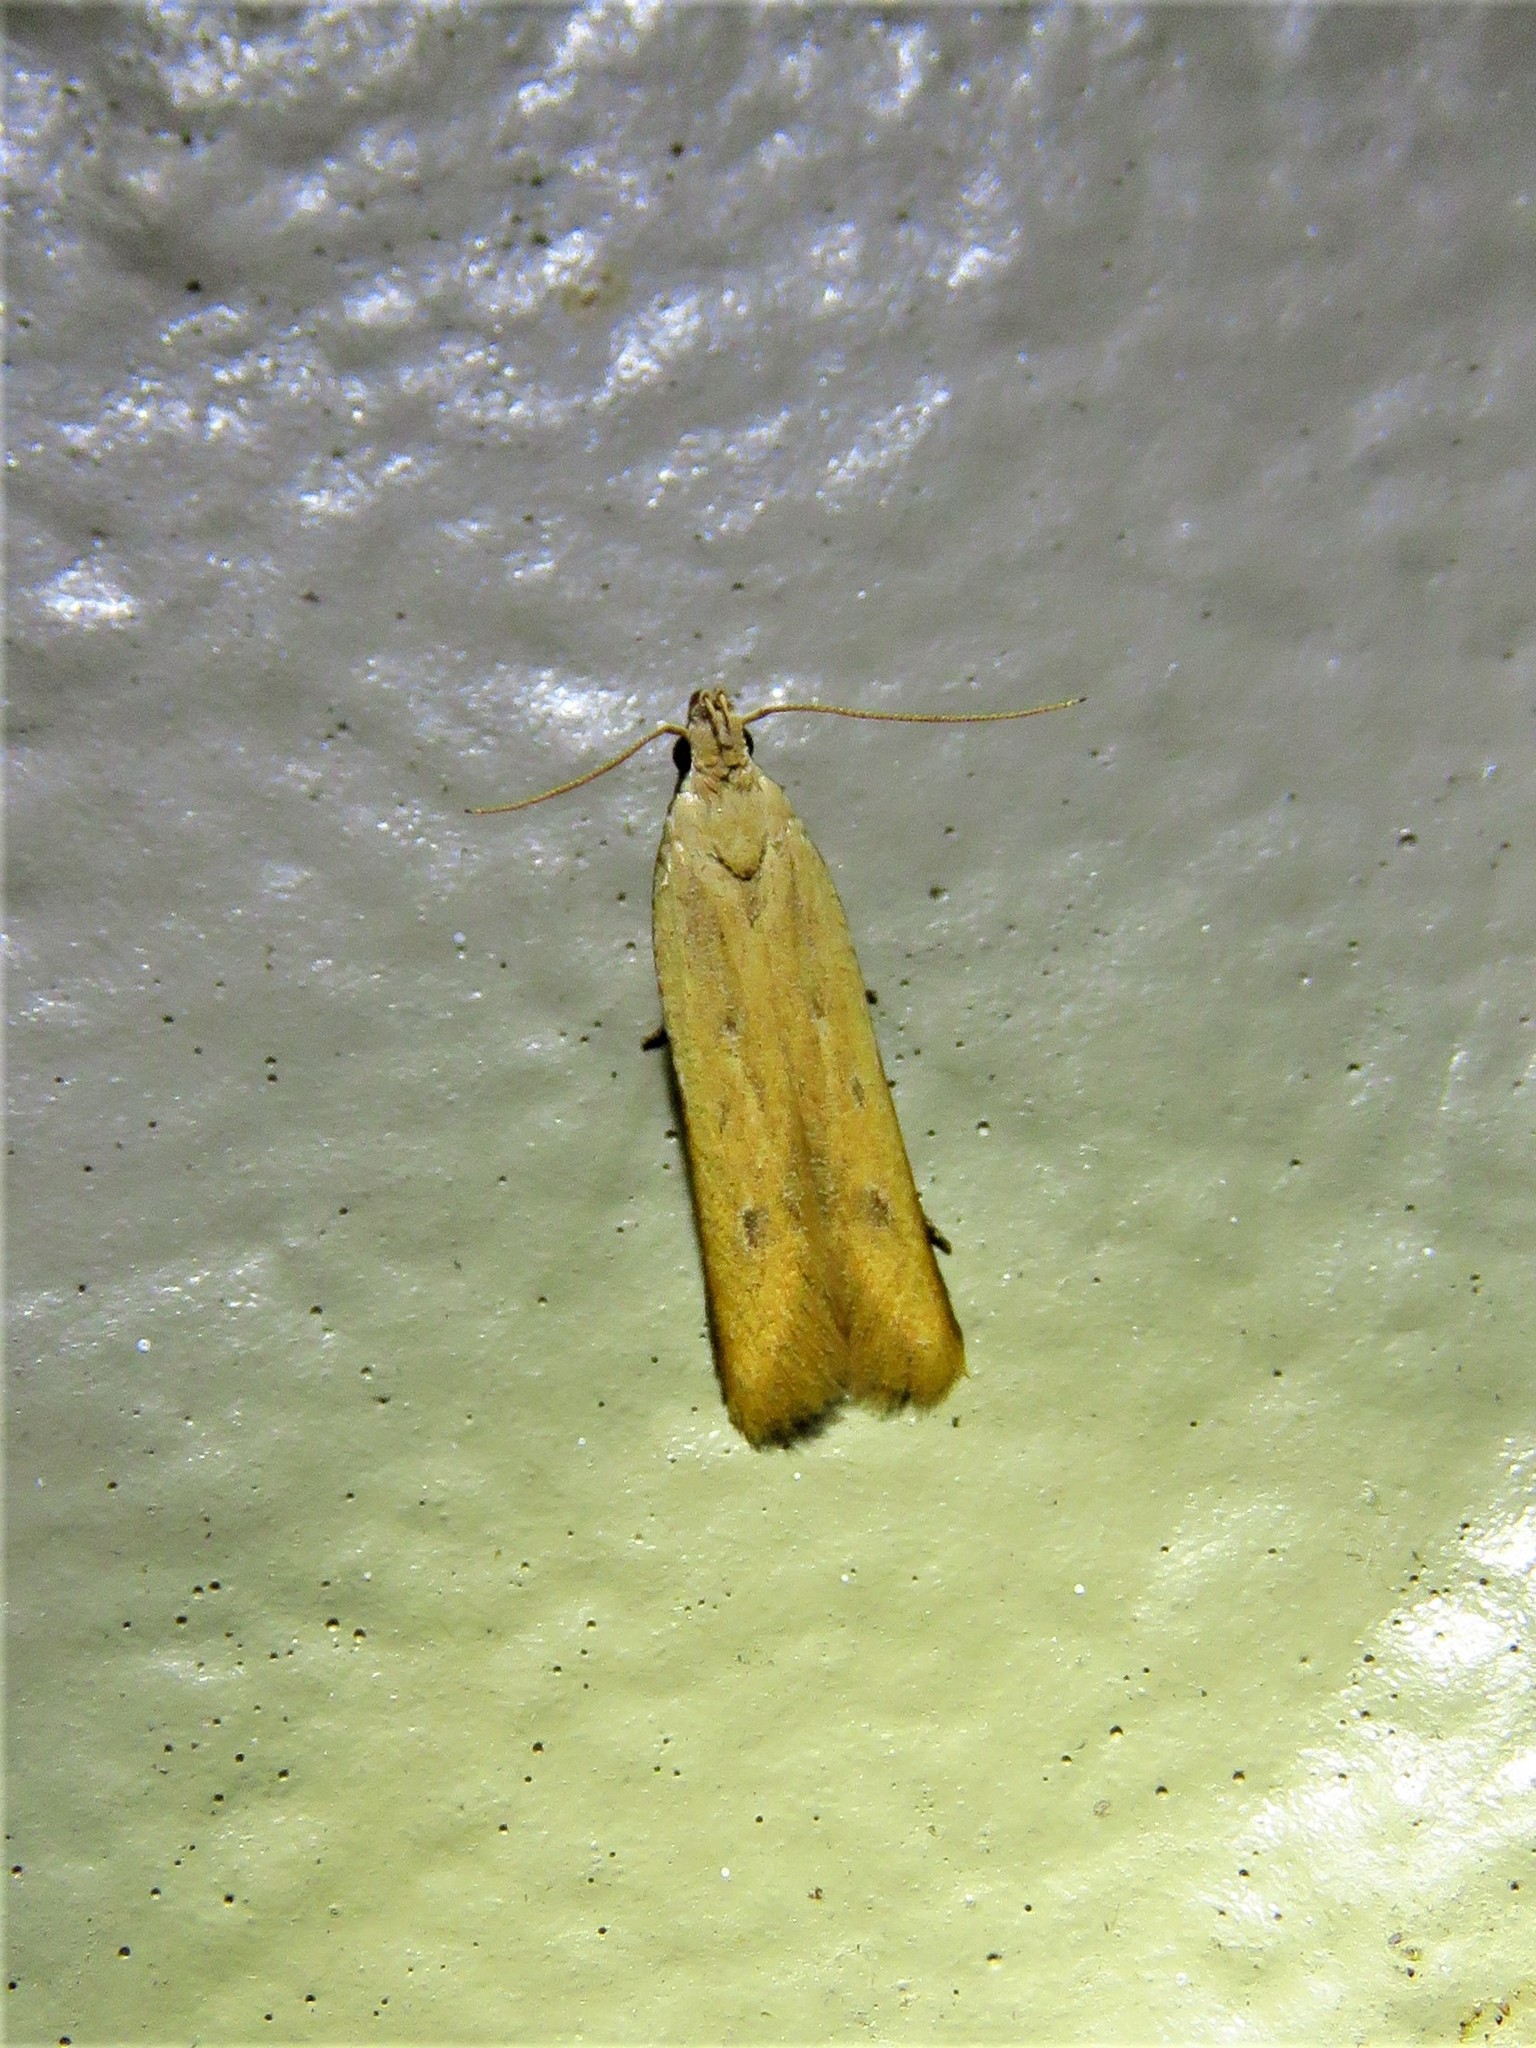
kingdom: Animalia
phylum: Arthropoda
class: Insecta
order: Lepidoptera
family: Gelechiidae
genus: Mesophleps
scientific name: Mesophleps adustipennis
